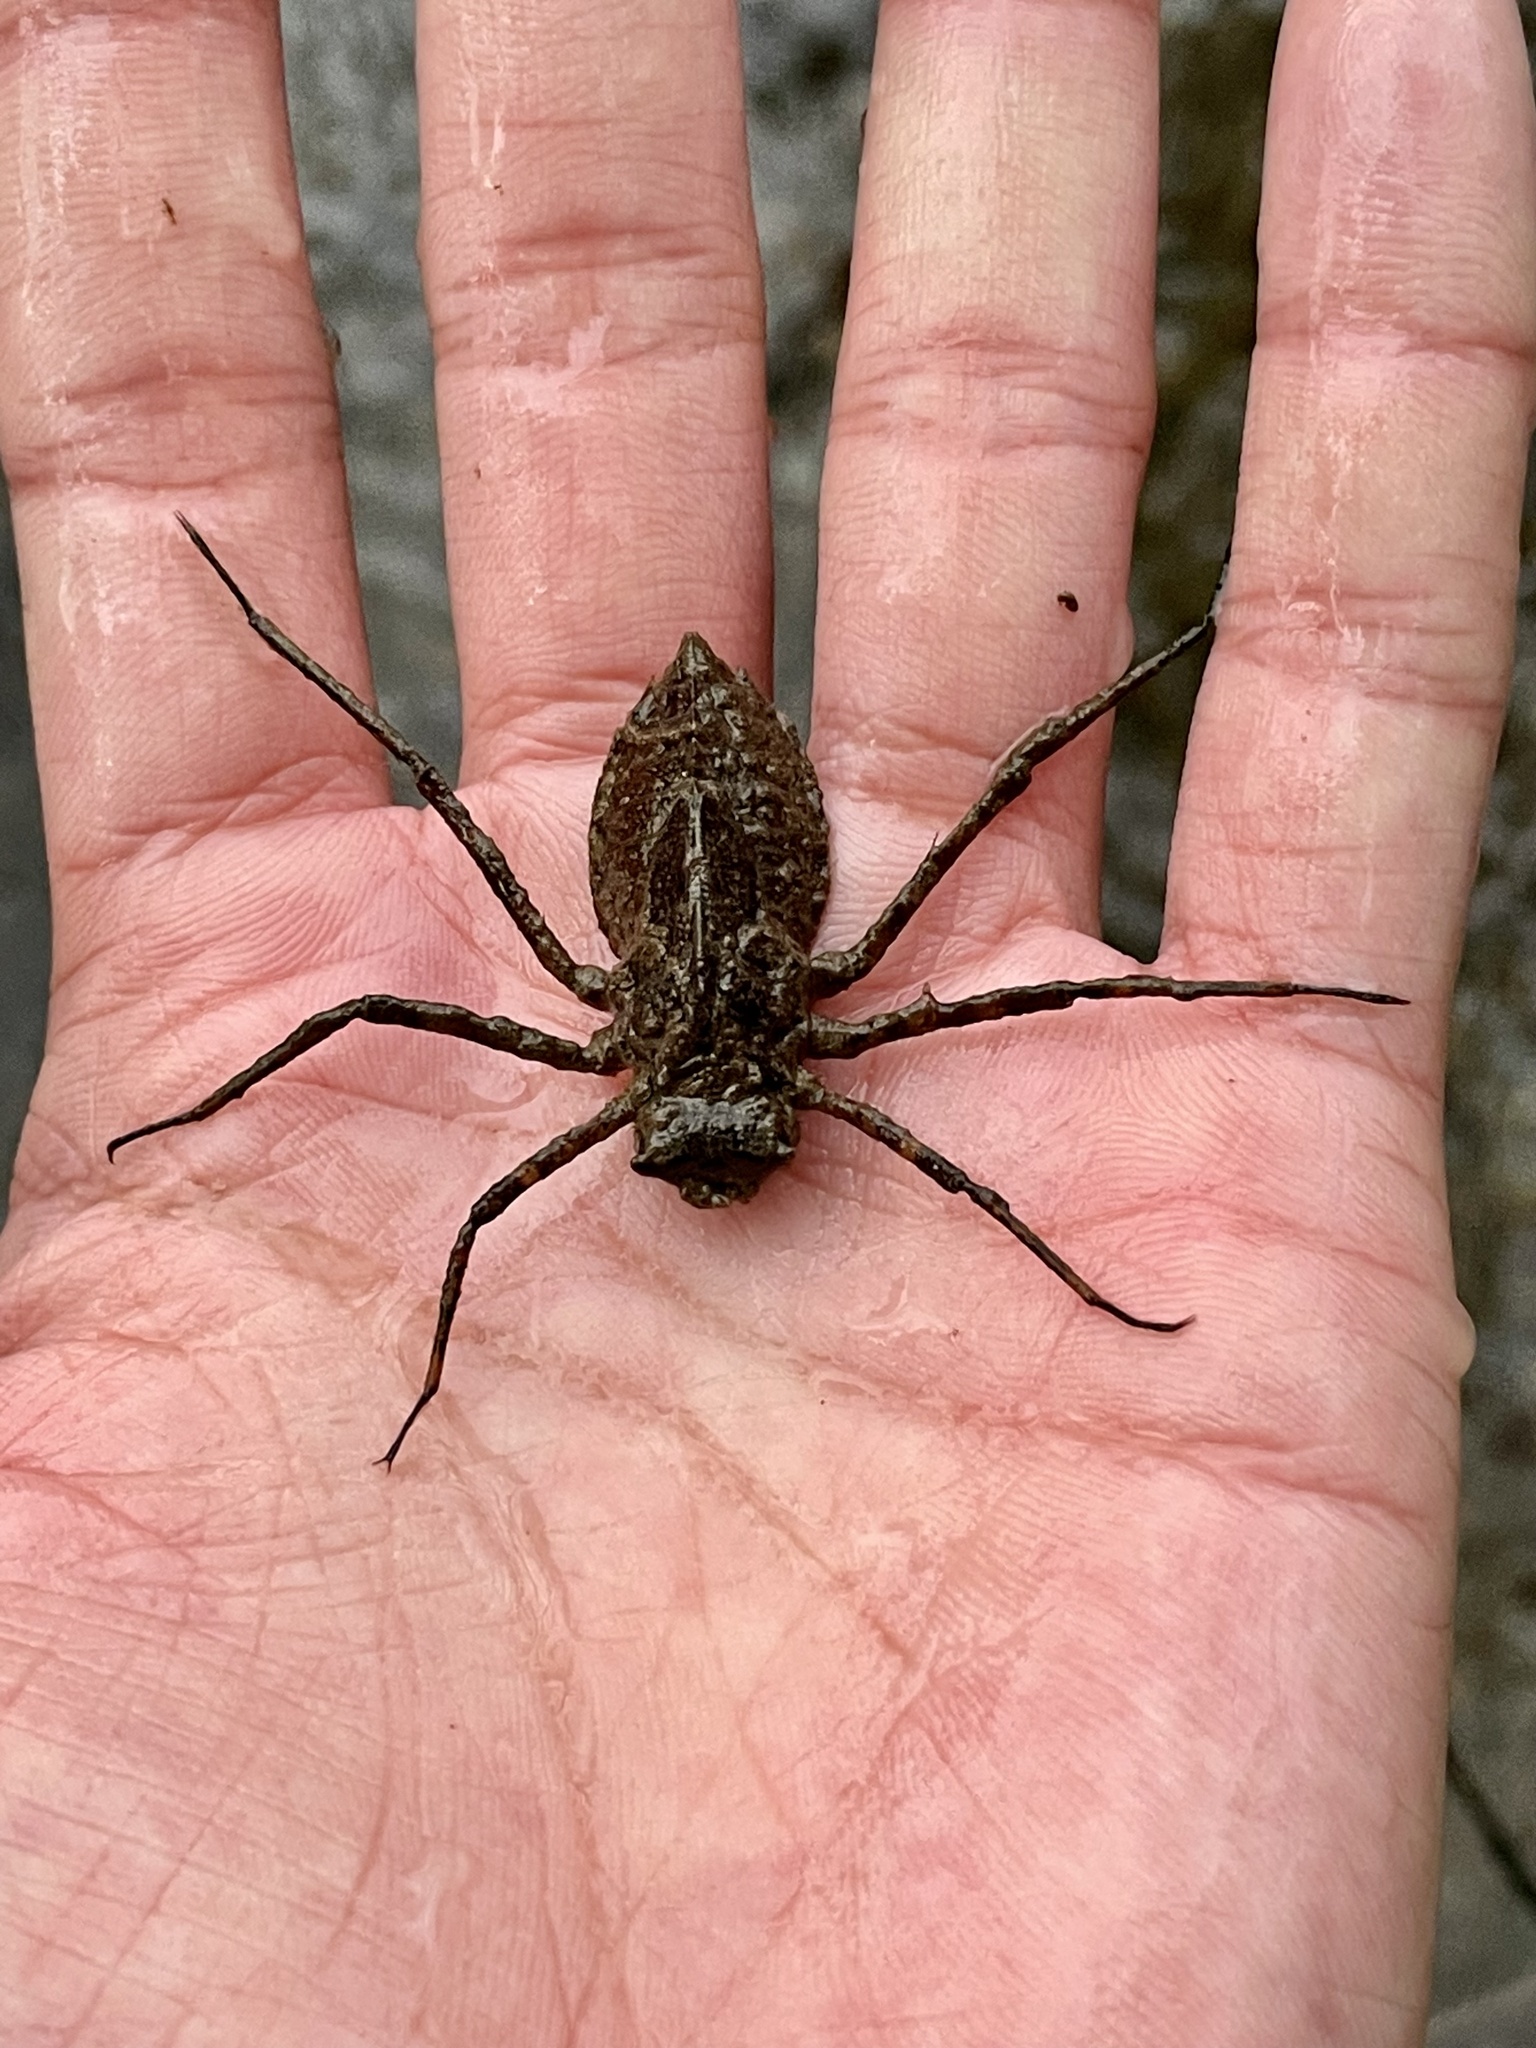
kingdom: Animalia
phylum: Arthropoda
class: Insecta
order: Odonata
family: Macromiidae
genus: Macromia
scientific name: Macromia amphigena
